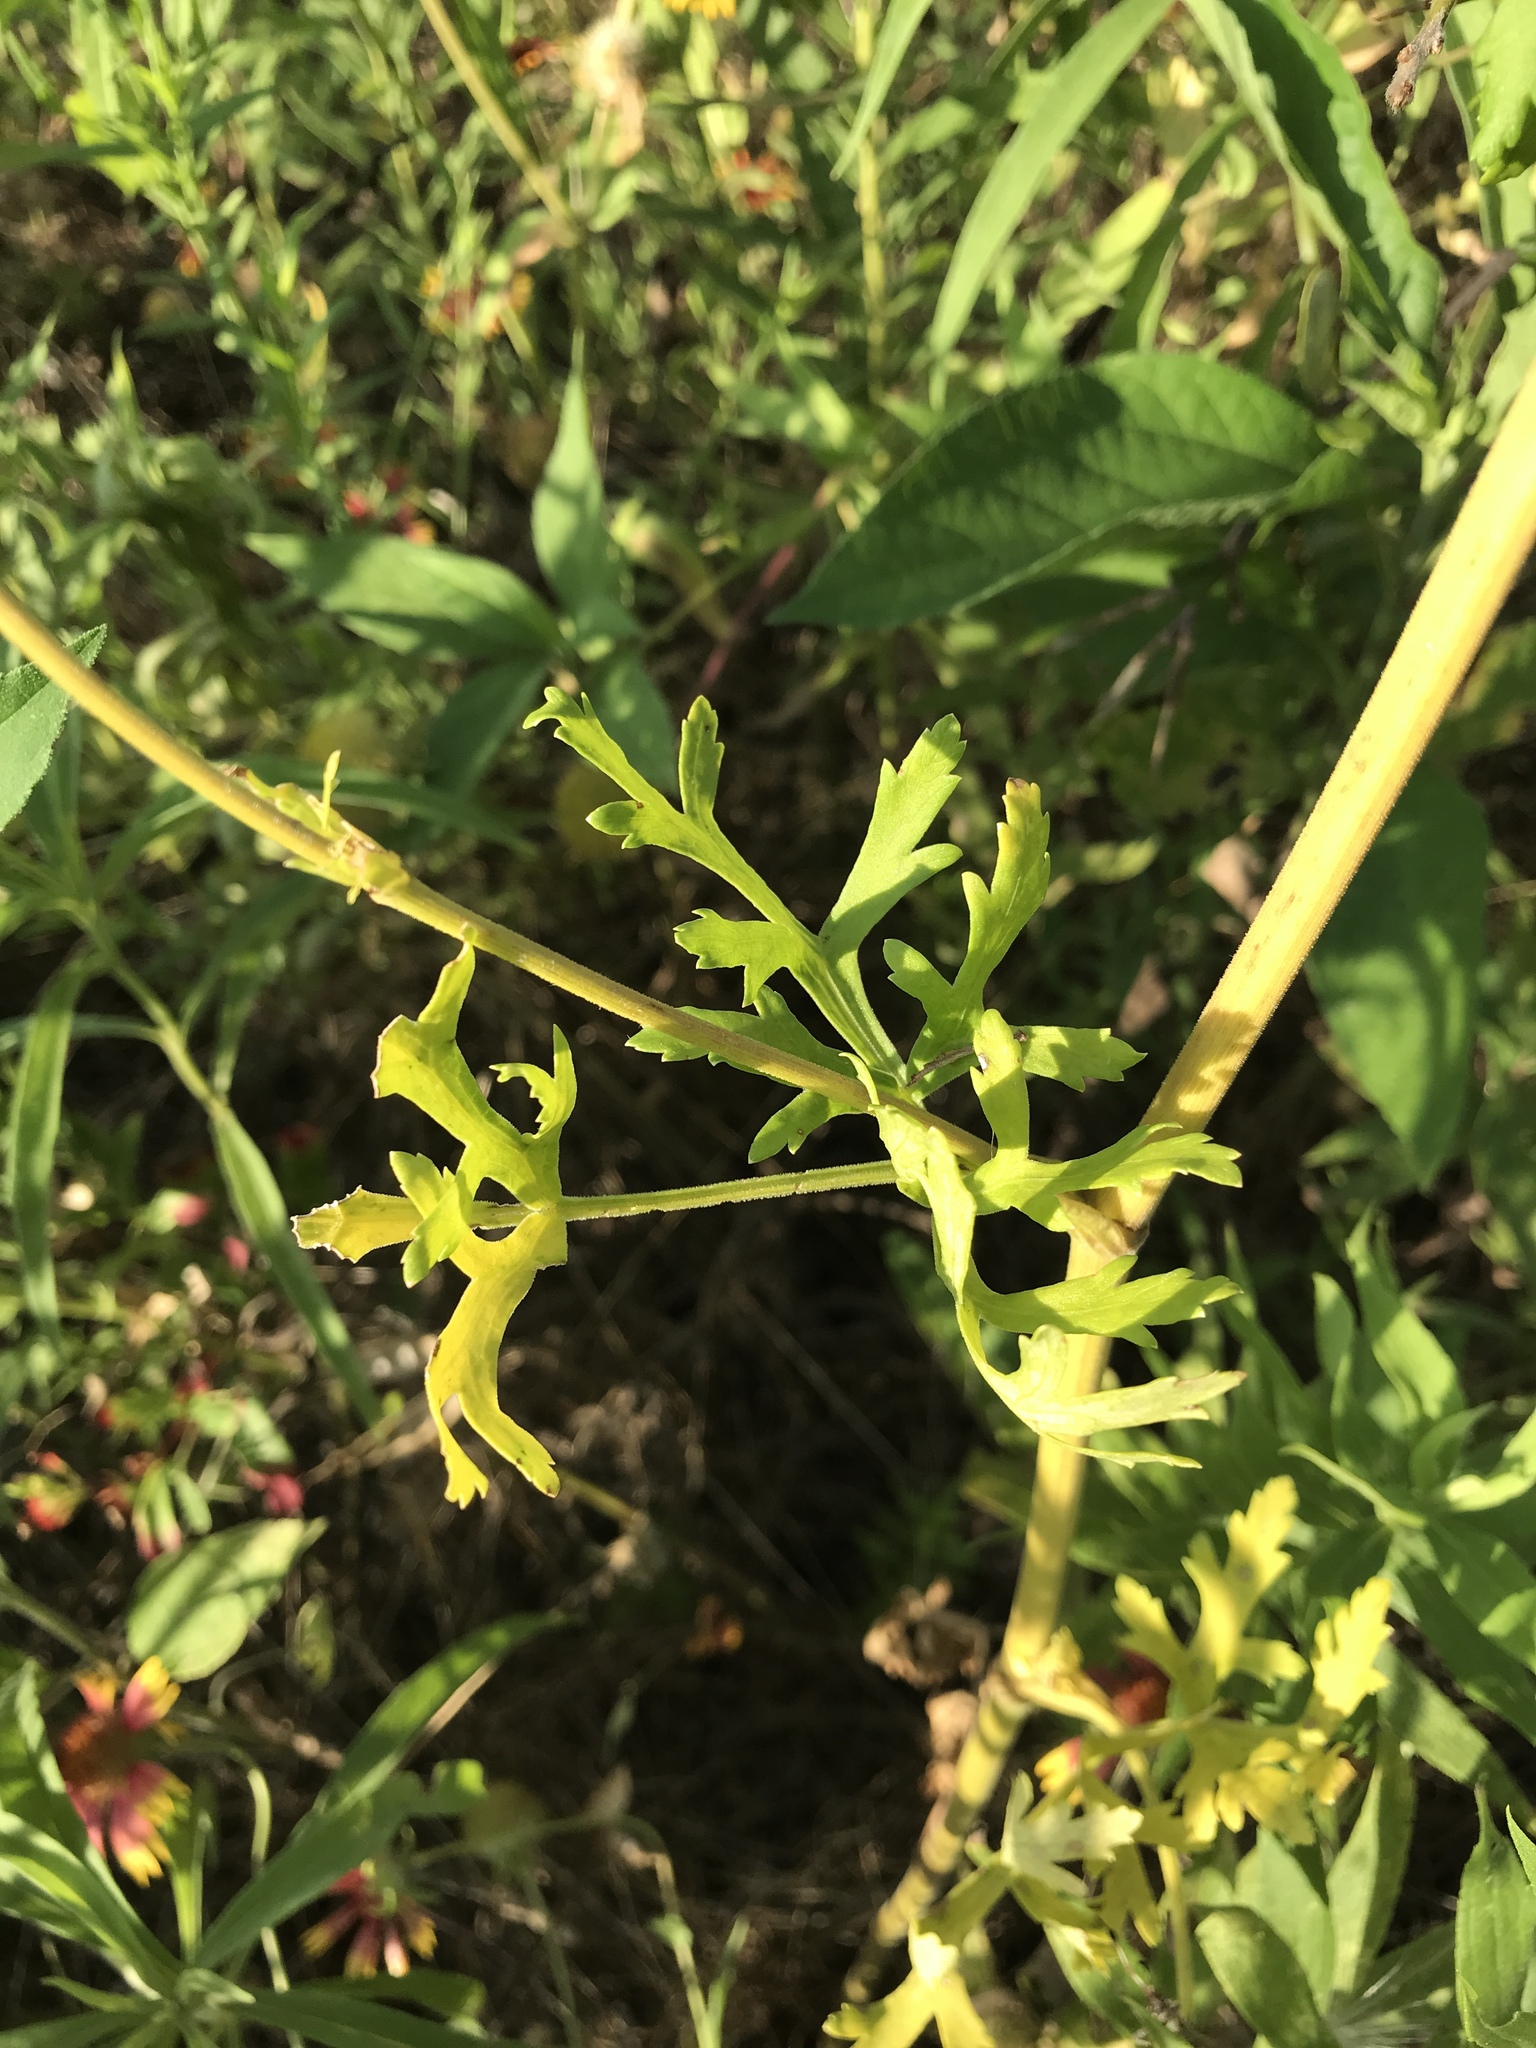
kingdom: Plantae
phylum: Tracheophyta
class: Magnoliopsida
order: Apiales
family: Apiaceae
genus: Polytaenia
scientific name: Polytaenia texana
